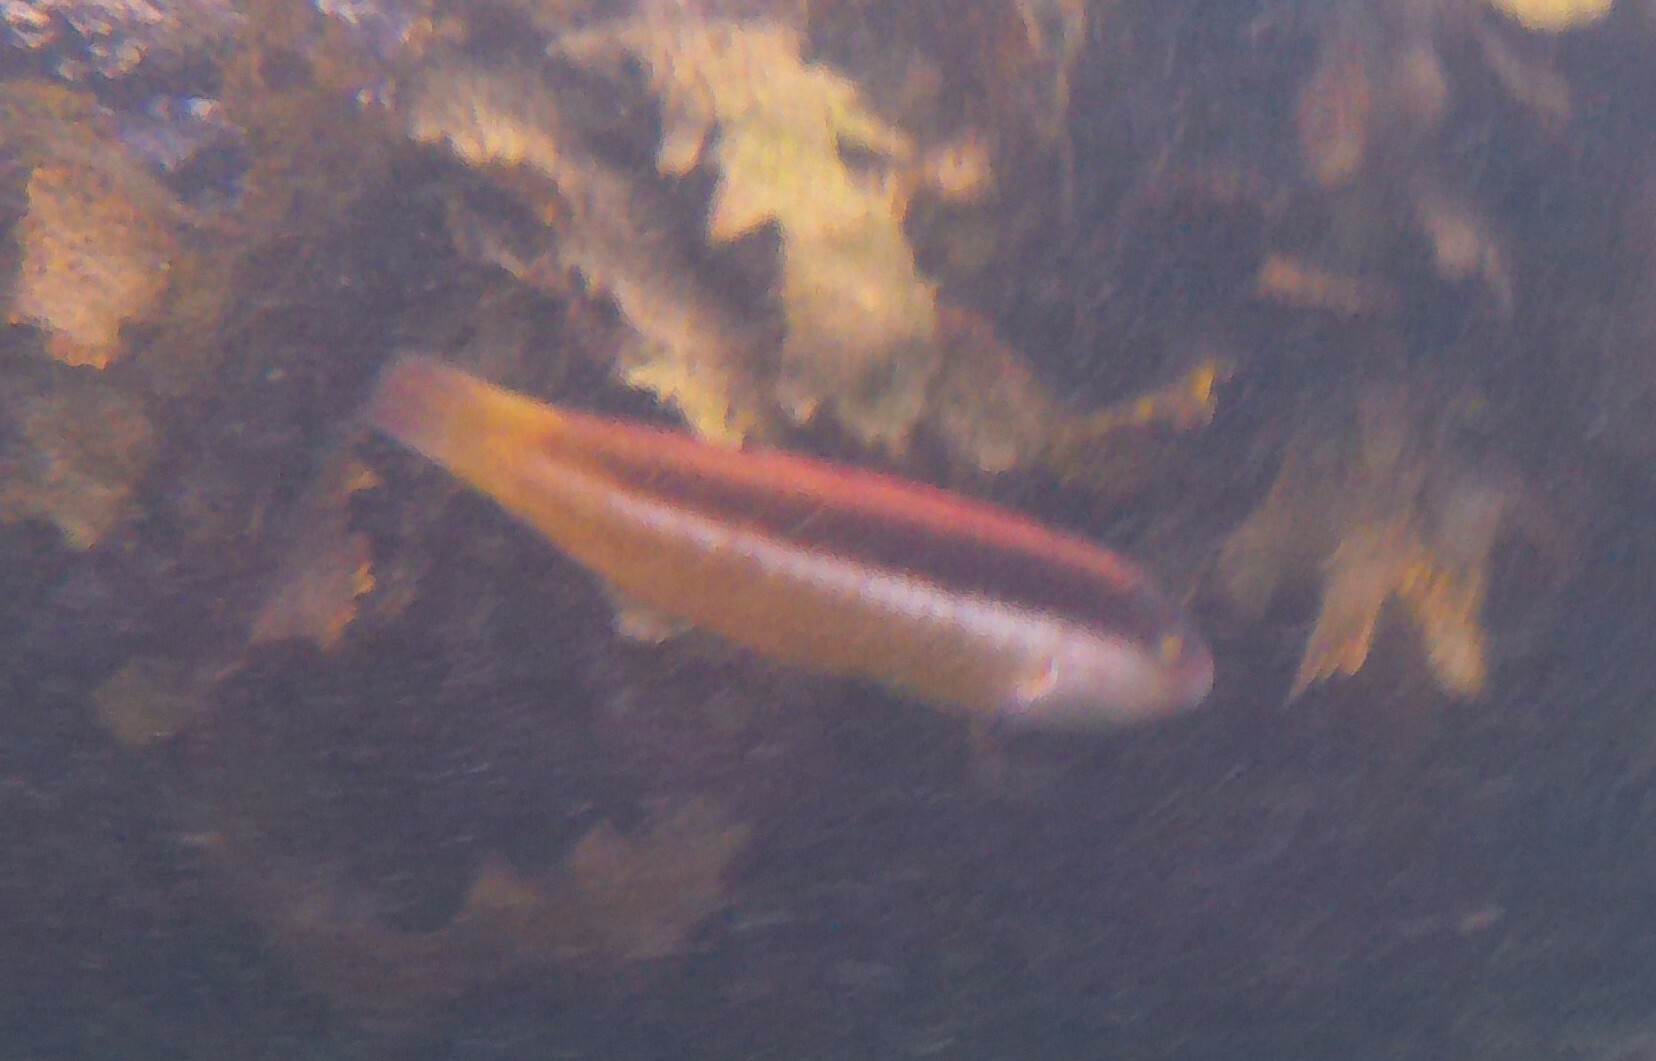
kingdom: Animalia
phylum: Chordata
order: Perciformes
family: Labridae
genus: Ophthalmolepis
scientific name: Ophthalmolepis lineolata
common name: Maori wrasse
